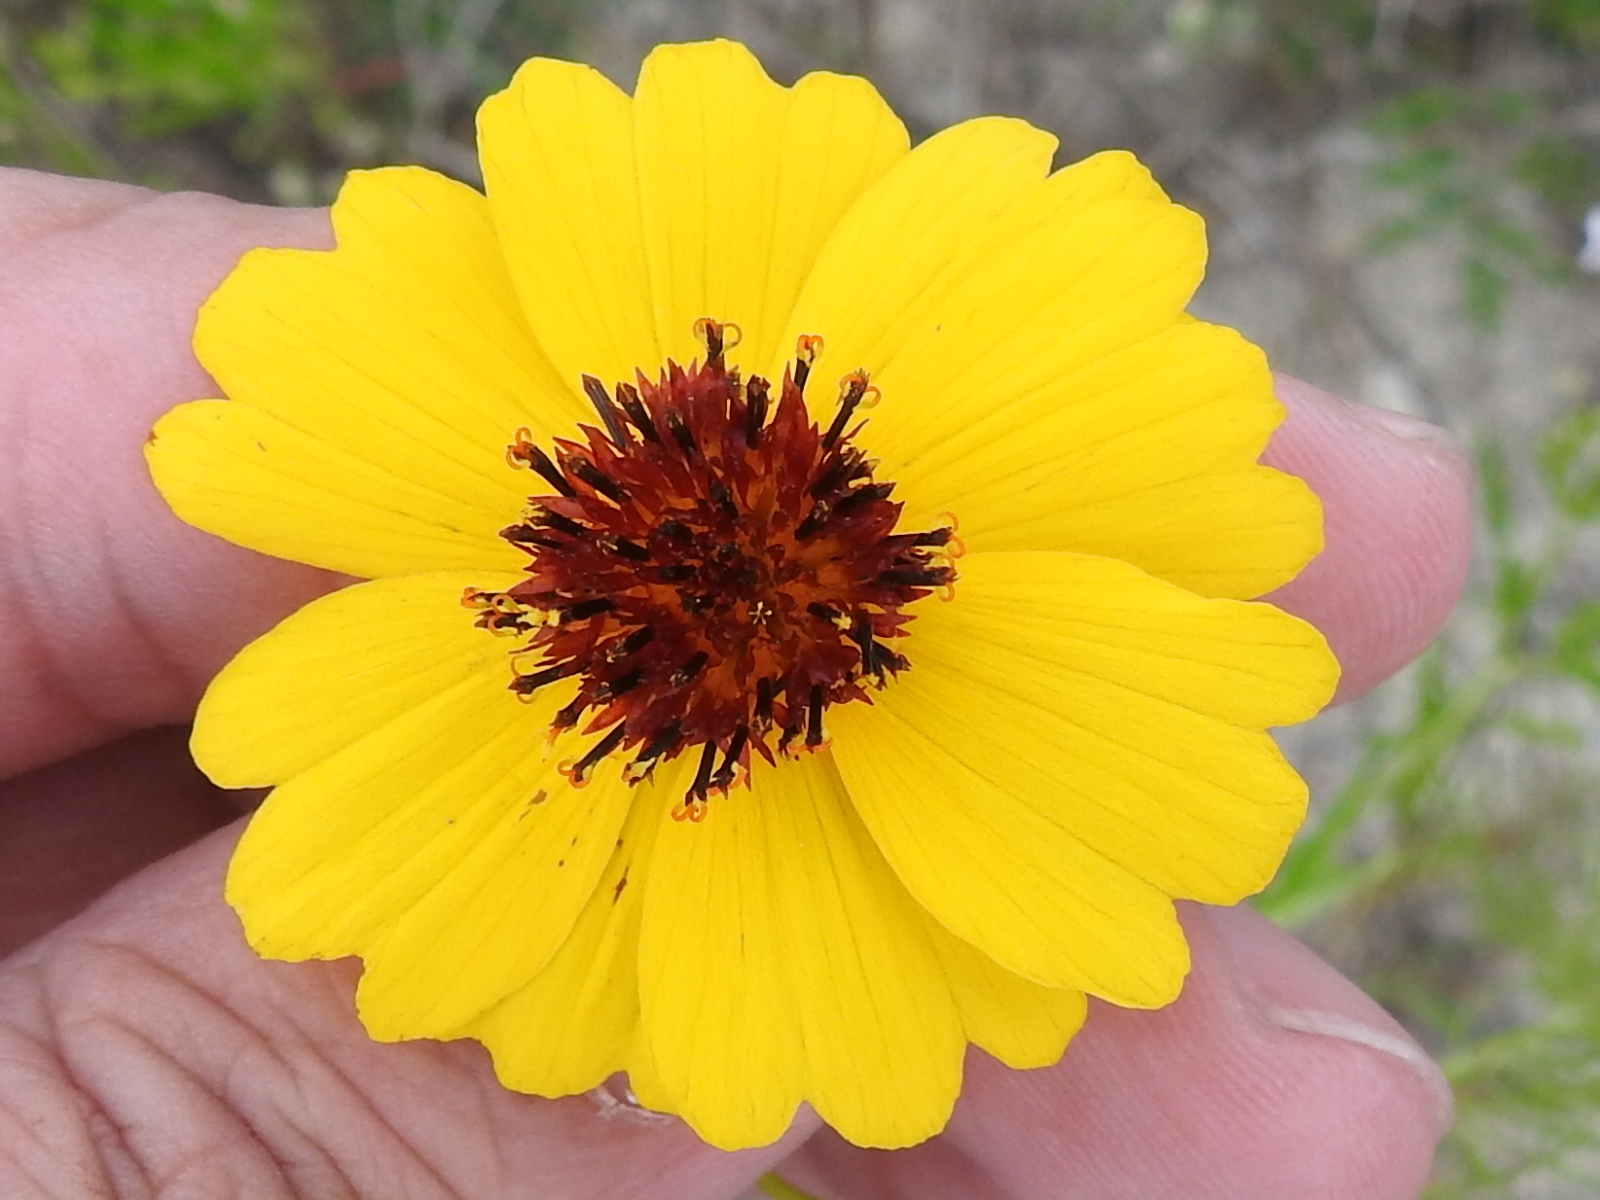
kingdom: Plantae
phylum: Tracheophyta
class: Magnoliopsida
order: Asterales
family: Asteraceae
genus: Thelesperma
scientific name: Thelesperma filifolium
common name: Stiff greenthread
